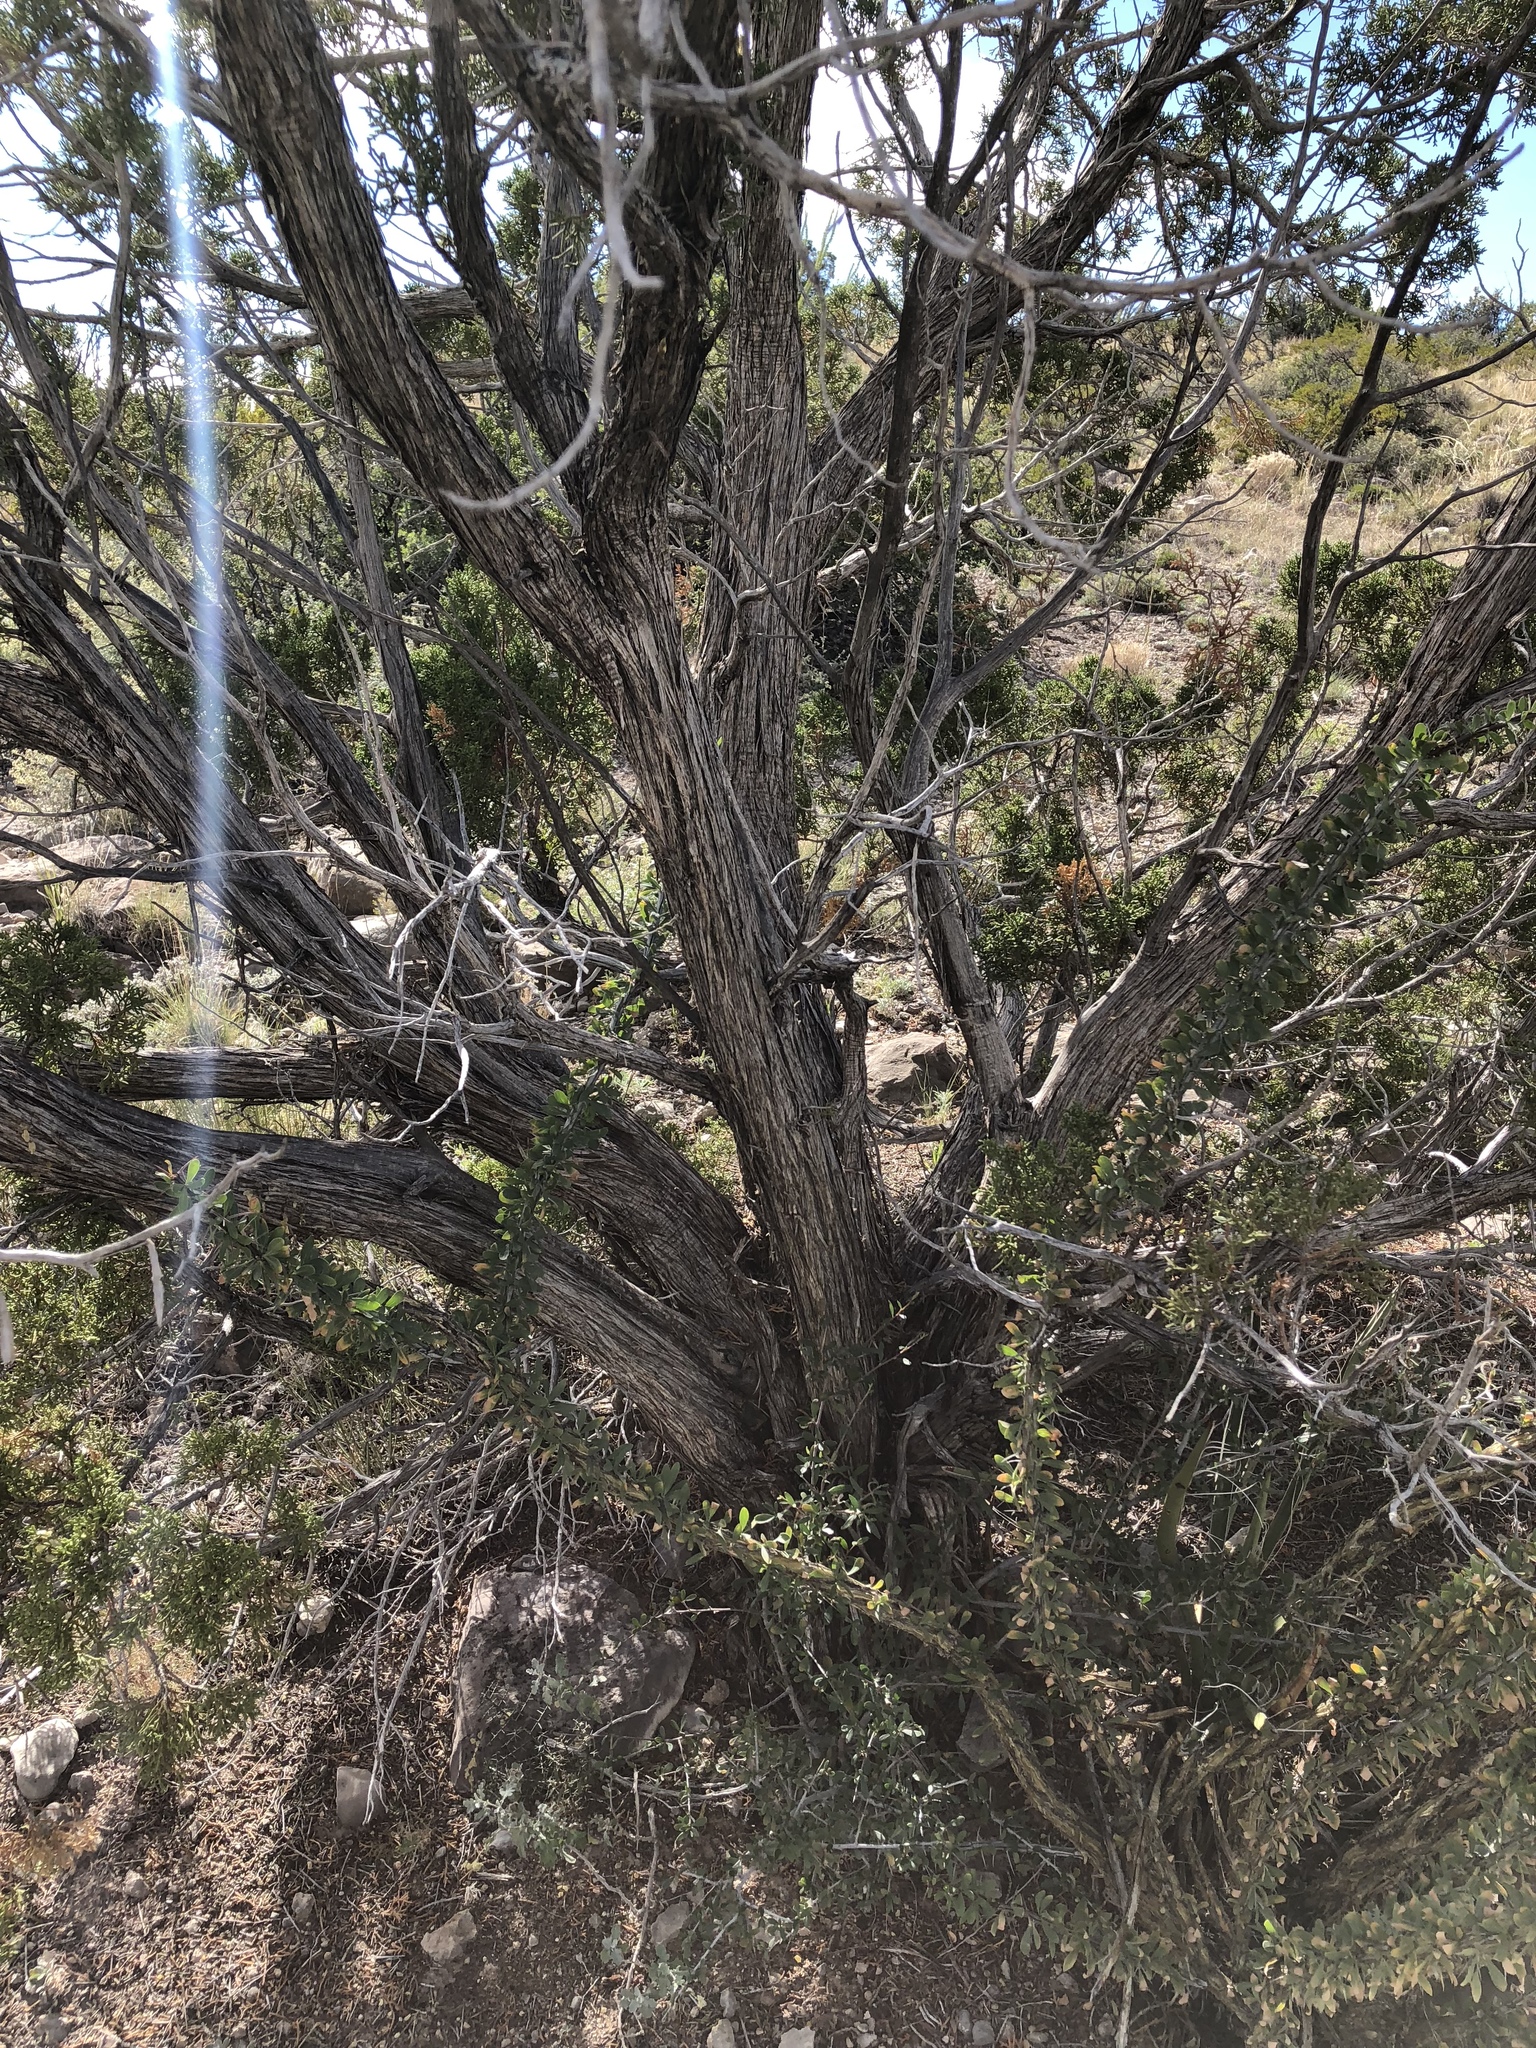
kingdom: Plantae
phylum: Tracheophyta
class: Pinopsida
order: Pinales
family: Cupressaceae
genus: Juniperus
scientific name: Juniperus monosperma
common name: One-seed juniper
